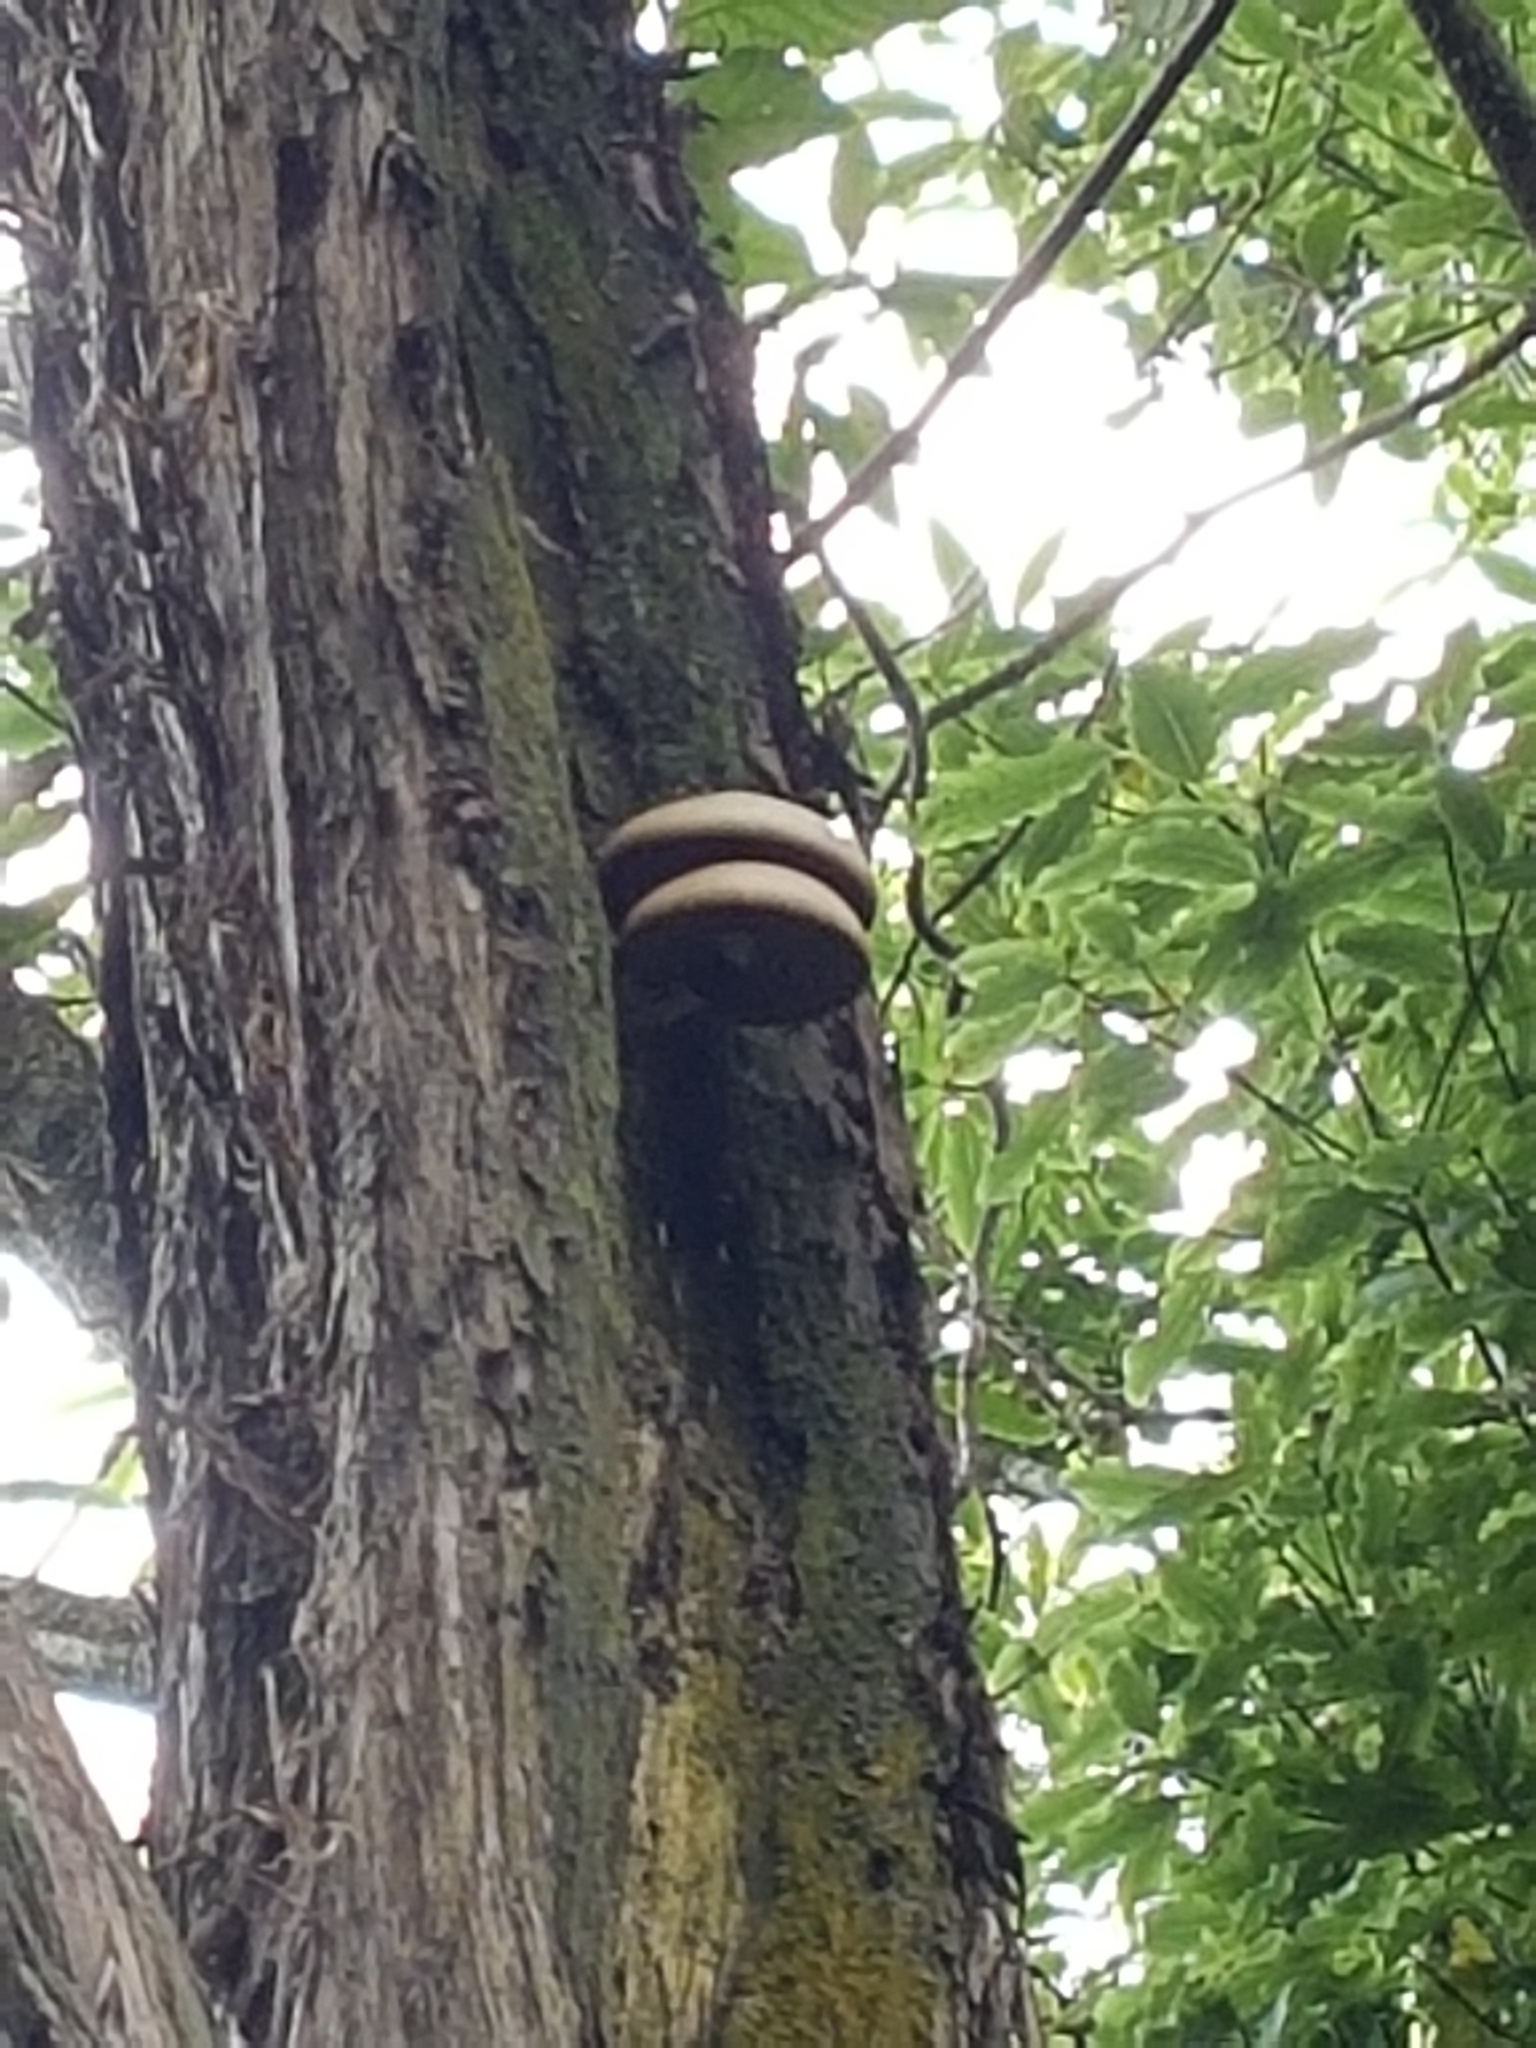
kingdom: Fungi
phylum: Basidiomycota
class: Agaricomycetes
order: Agaricales
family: Tubariaceae
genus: Cyclocybe
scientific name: Cyclocybe parasitica
